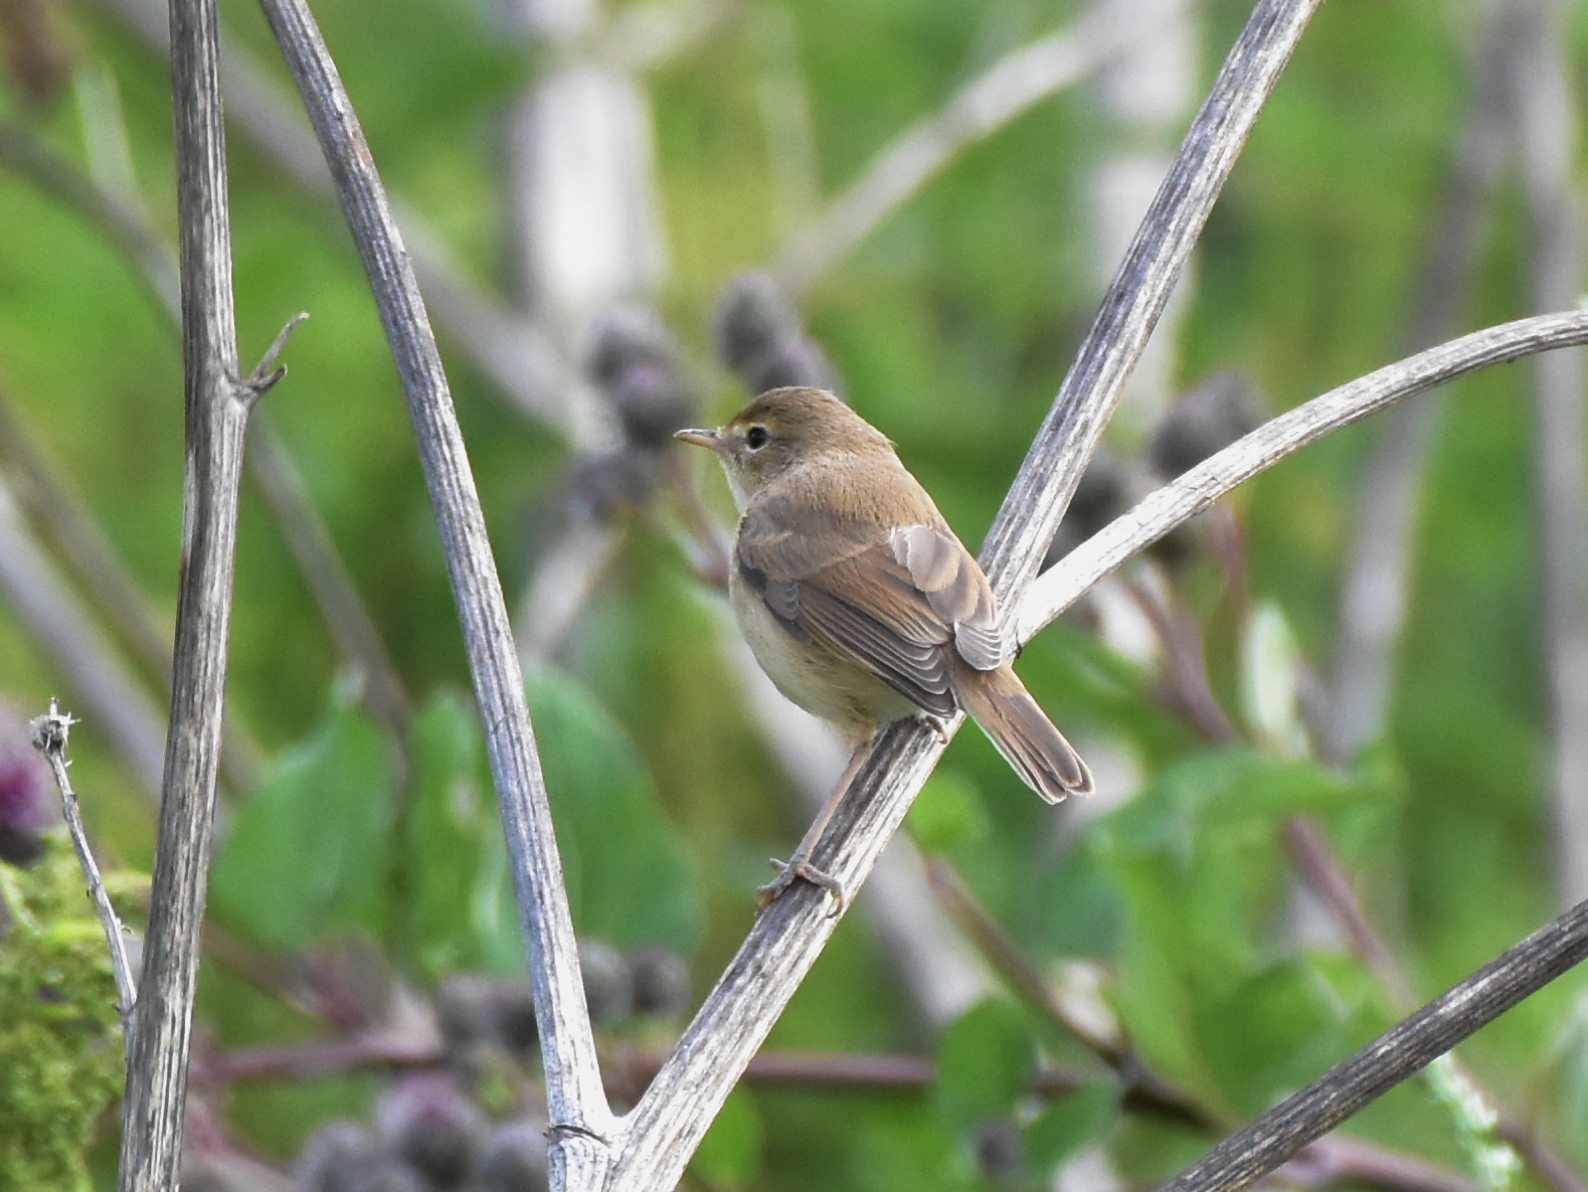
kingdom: Animalia
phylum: Chordata
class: Aves
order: Passeriformes
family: Acrocephalidae
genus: Acrocephalus
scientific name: Acrocephalus dumetorum
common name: Blyth's reed warbler
